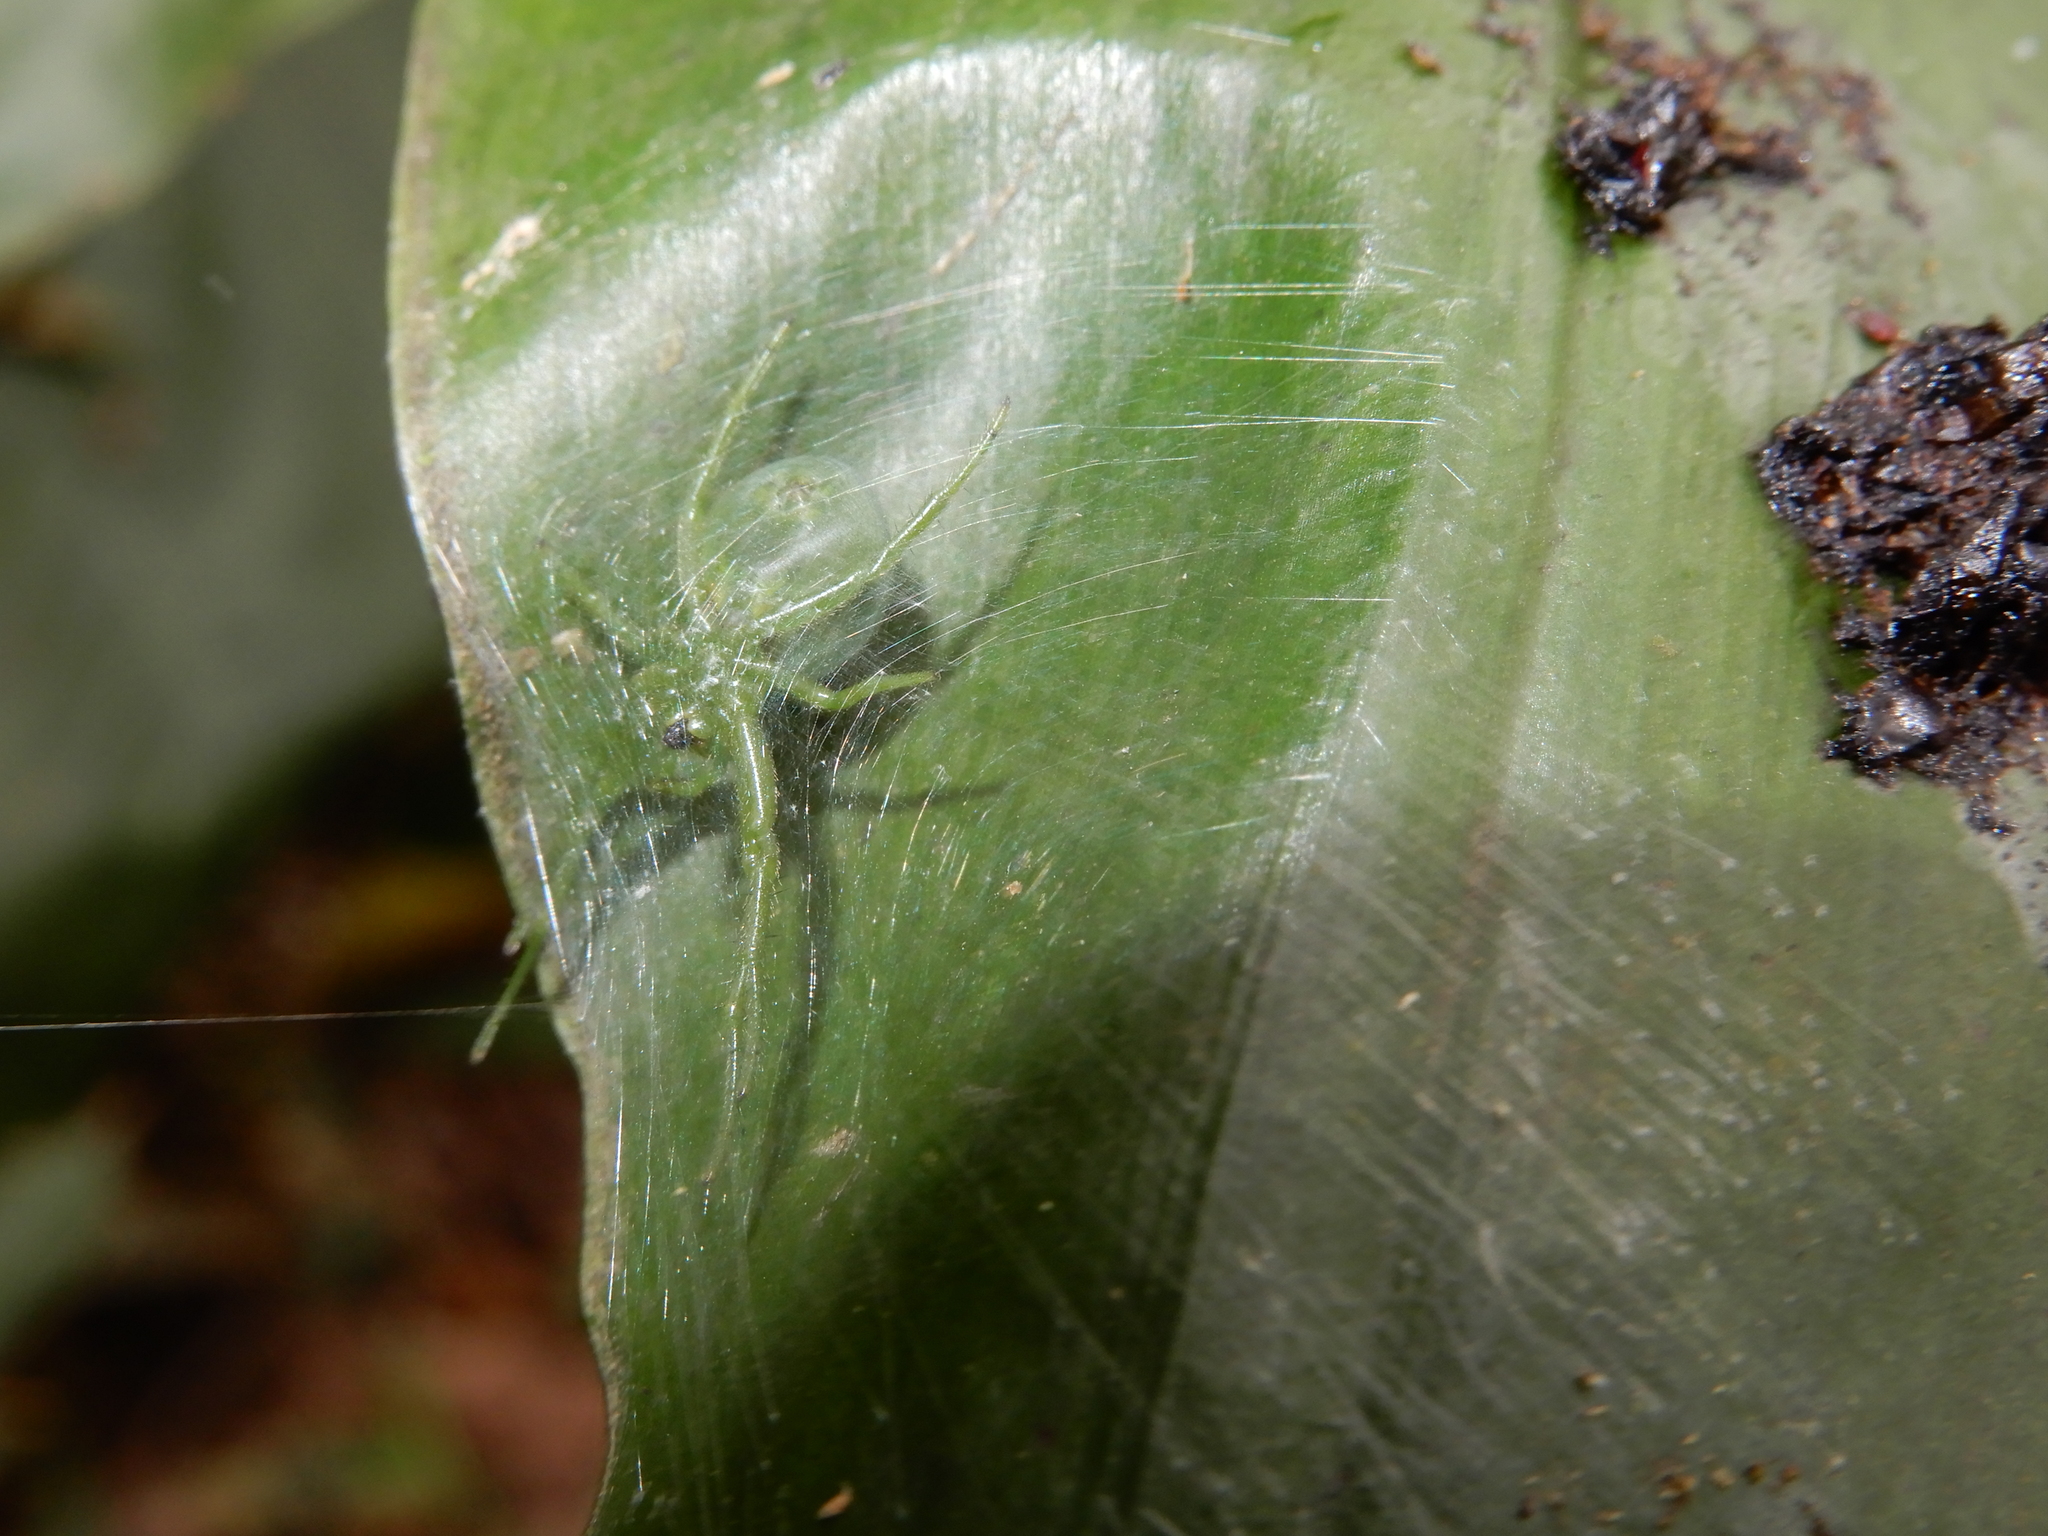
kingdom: Animalia
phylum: Arthropoda
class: Arachnida
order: Araneae
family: Araneidae
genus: Aoaraneus
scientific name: Aoaraneus pentagrammicus
